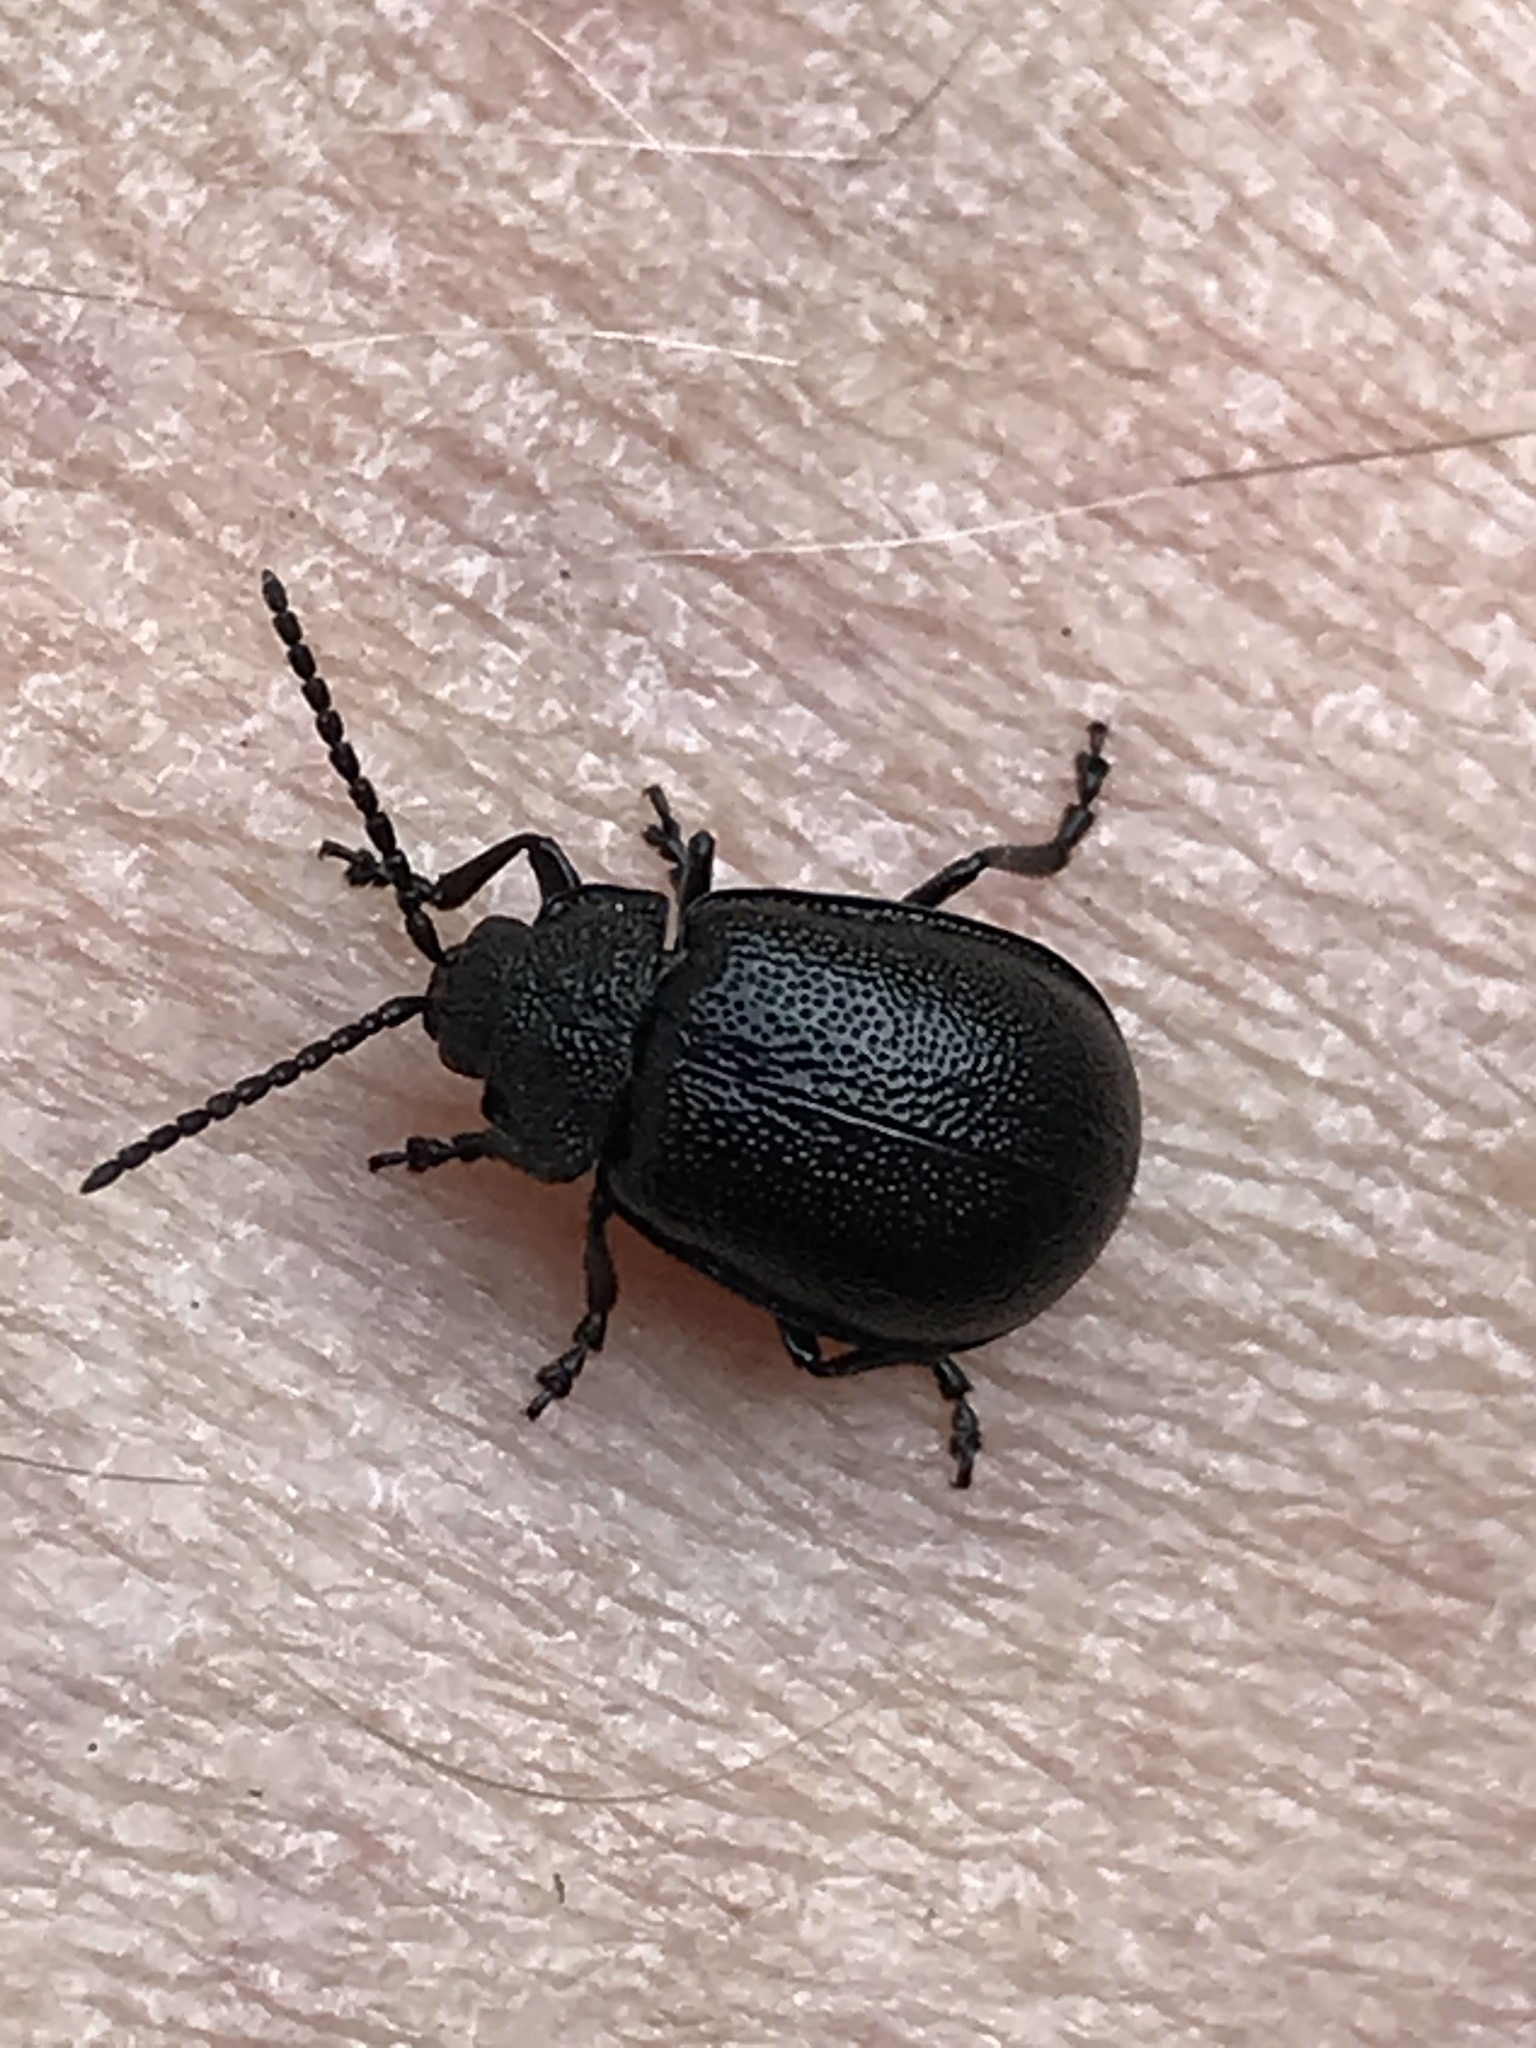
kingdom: Animalia
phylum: Arthropoda
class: Insecta
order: Coleoptera
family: Chrysomelidae
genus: Galeruca
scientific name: Galeruca tanaceti
